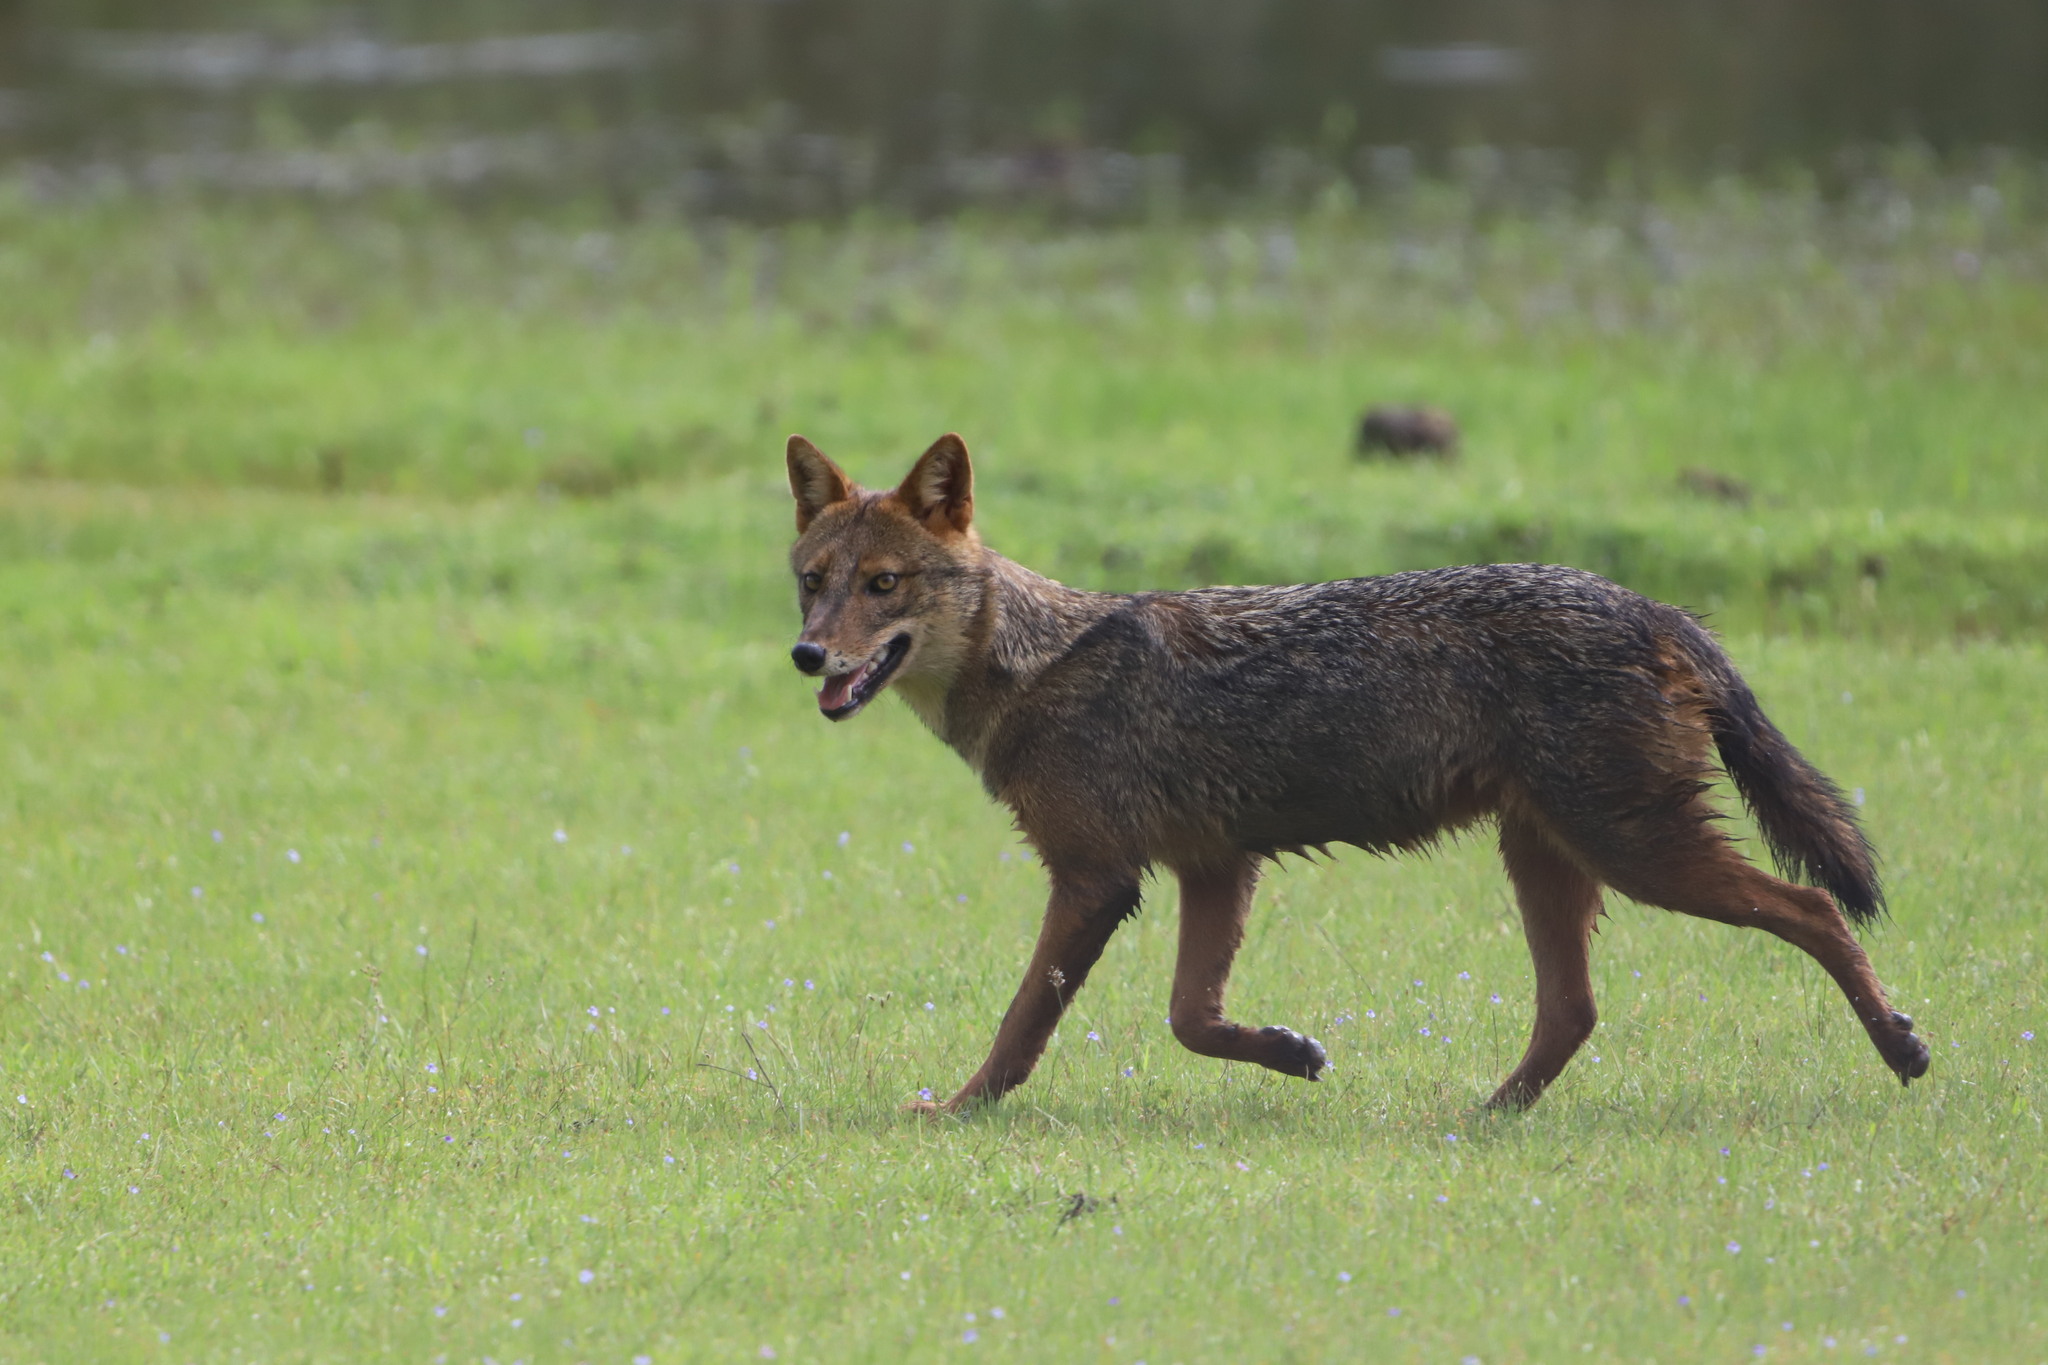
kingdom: Animalia
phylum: Chordata
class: Mammalia
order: Carnivora
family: Canidae
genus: Canis
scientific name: Canis aureus
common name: Golden jackal
